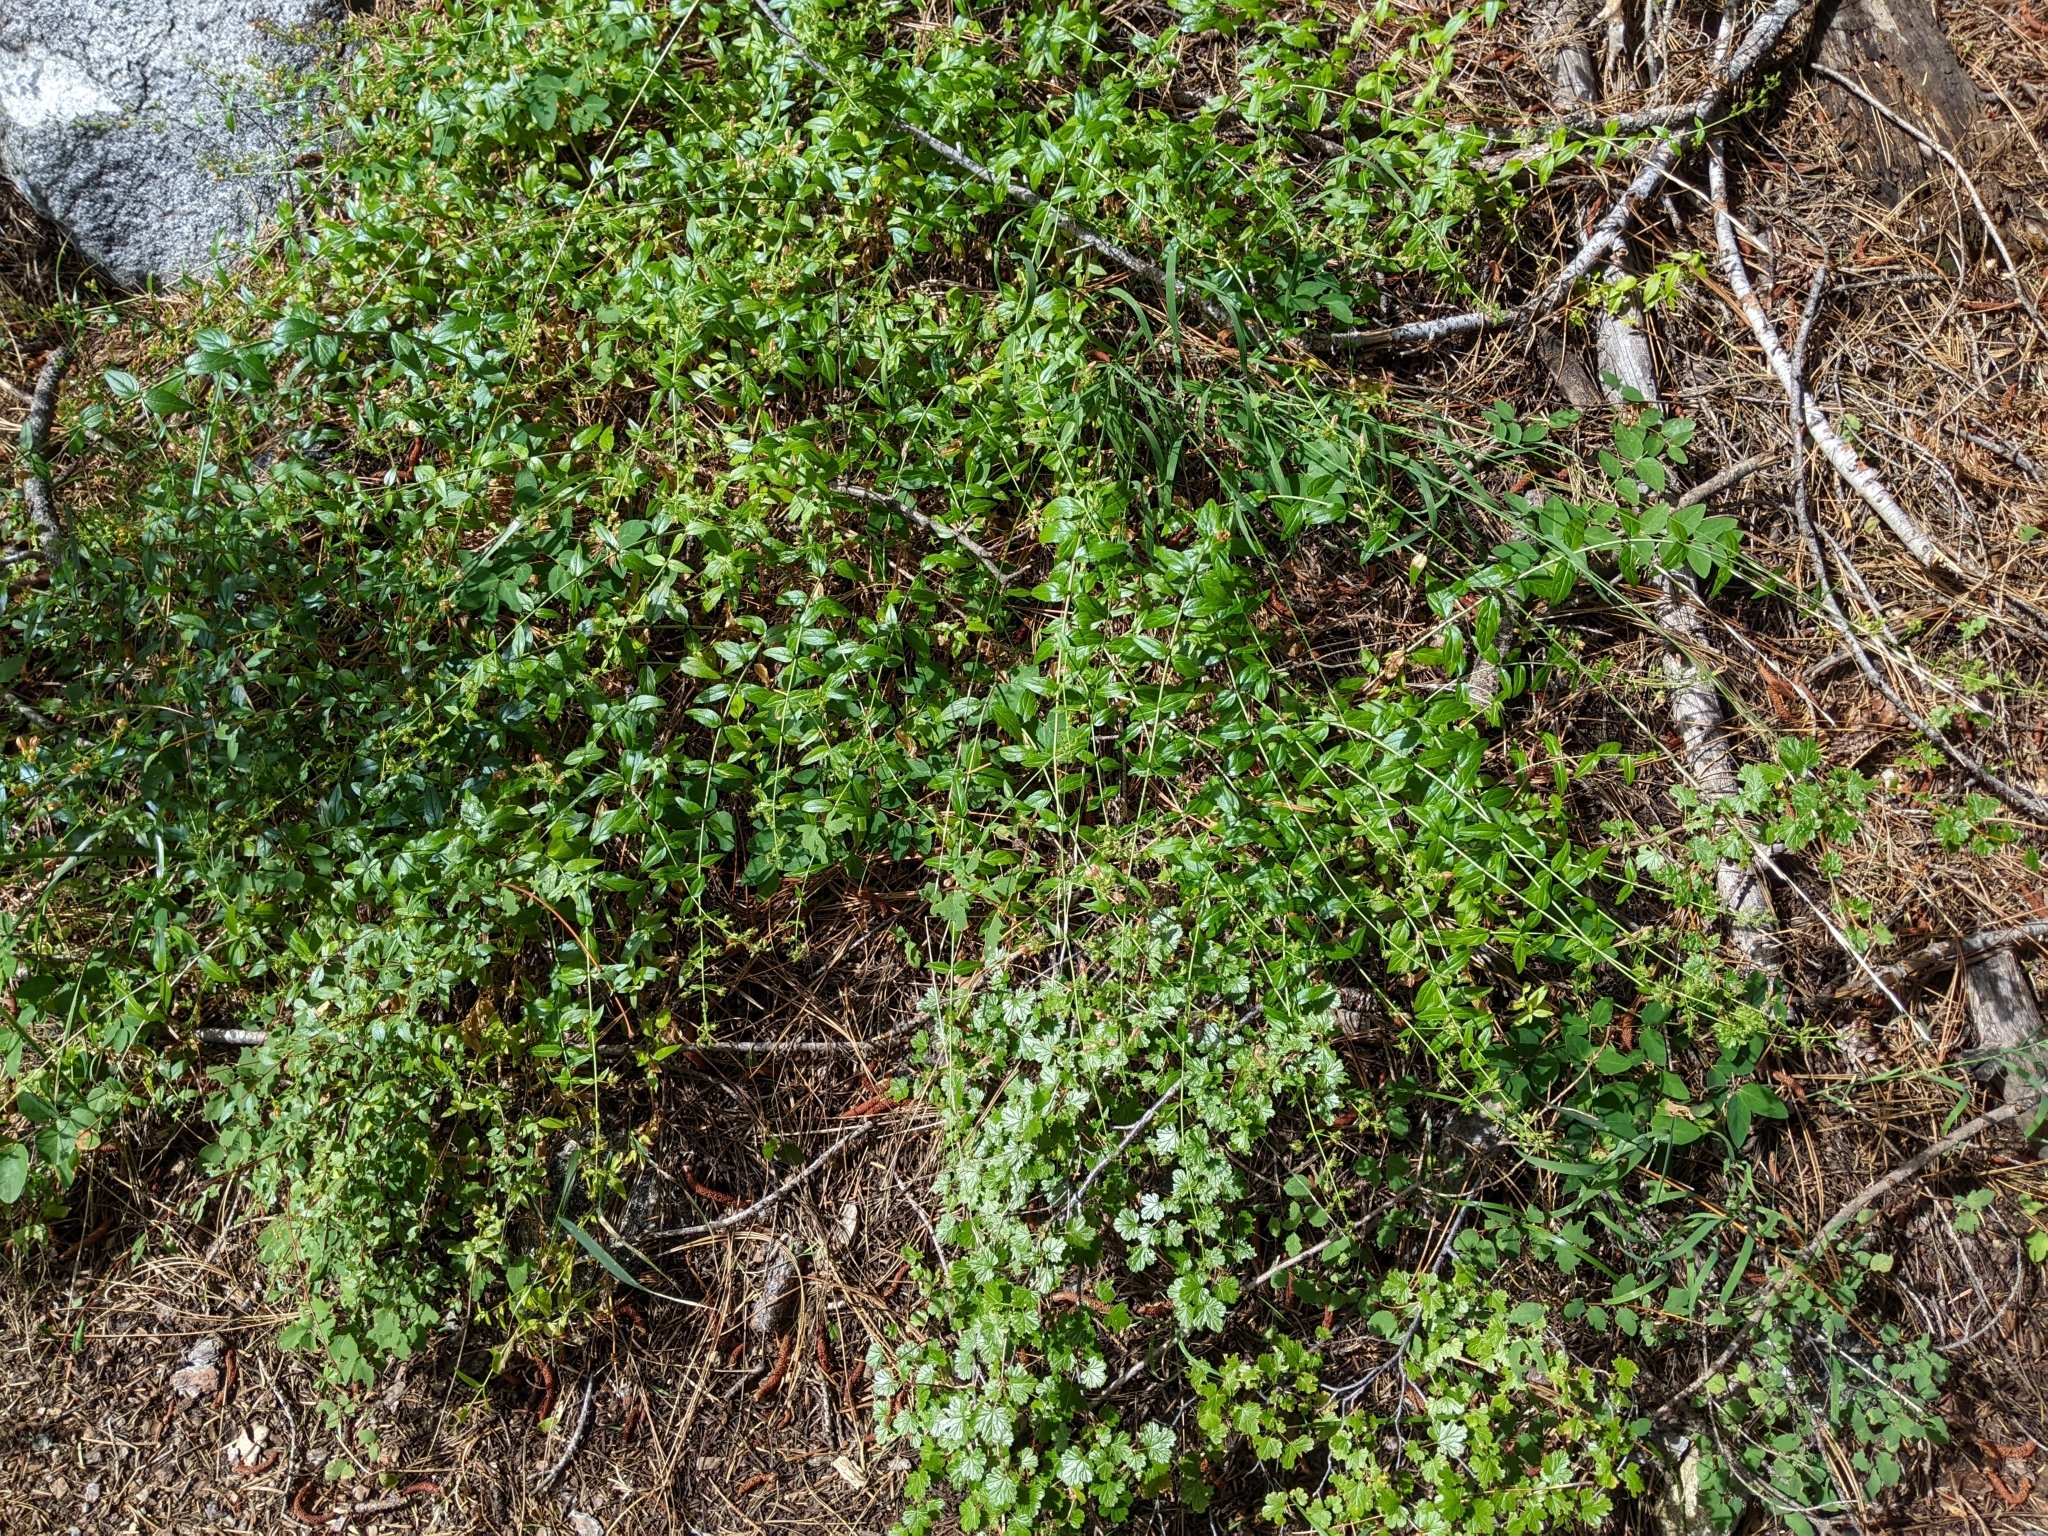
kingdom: Plantae
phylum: Tracheophyta
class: Magnoliopsida
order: Lamiales
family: Plantaginaceae
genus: Keckiella
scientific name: Keckiella lemmonii
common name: Lemmon's keckiella
